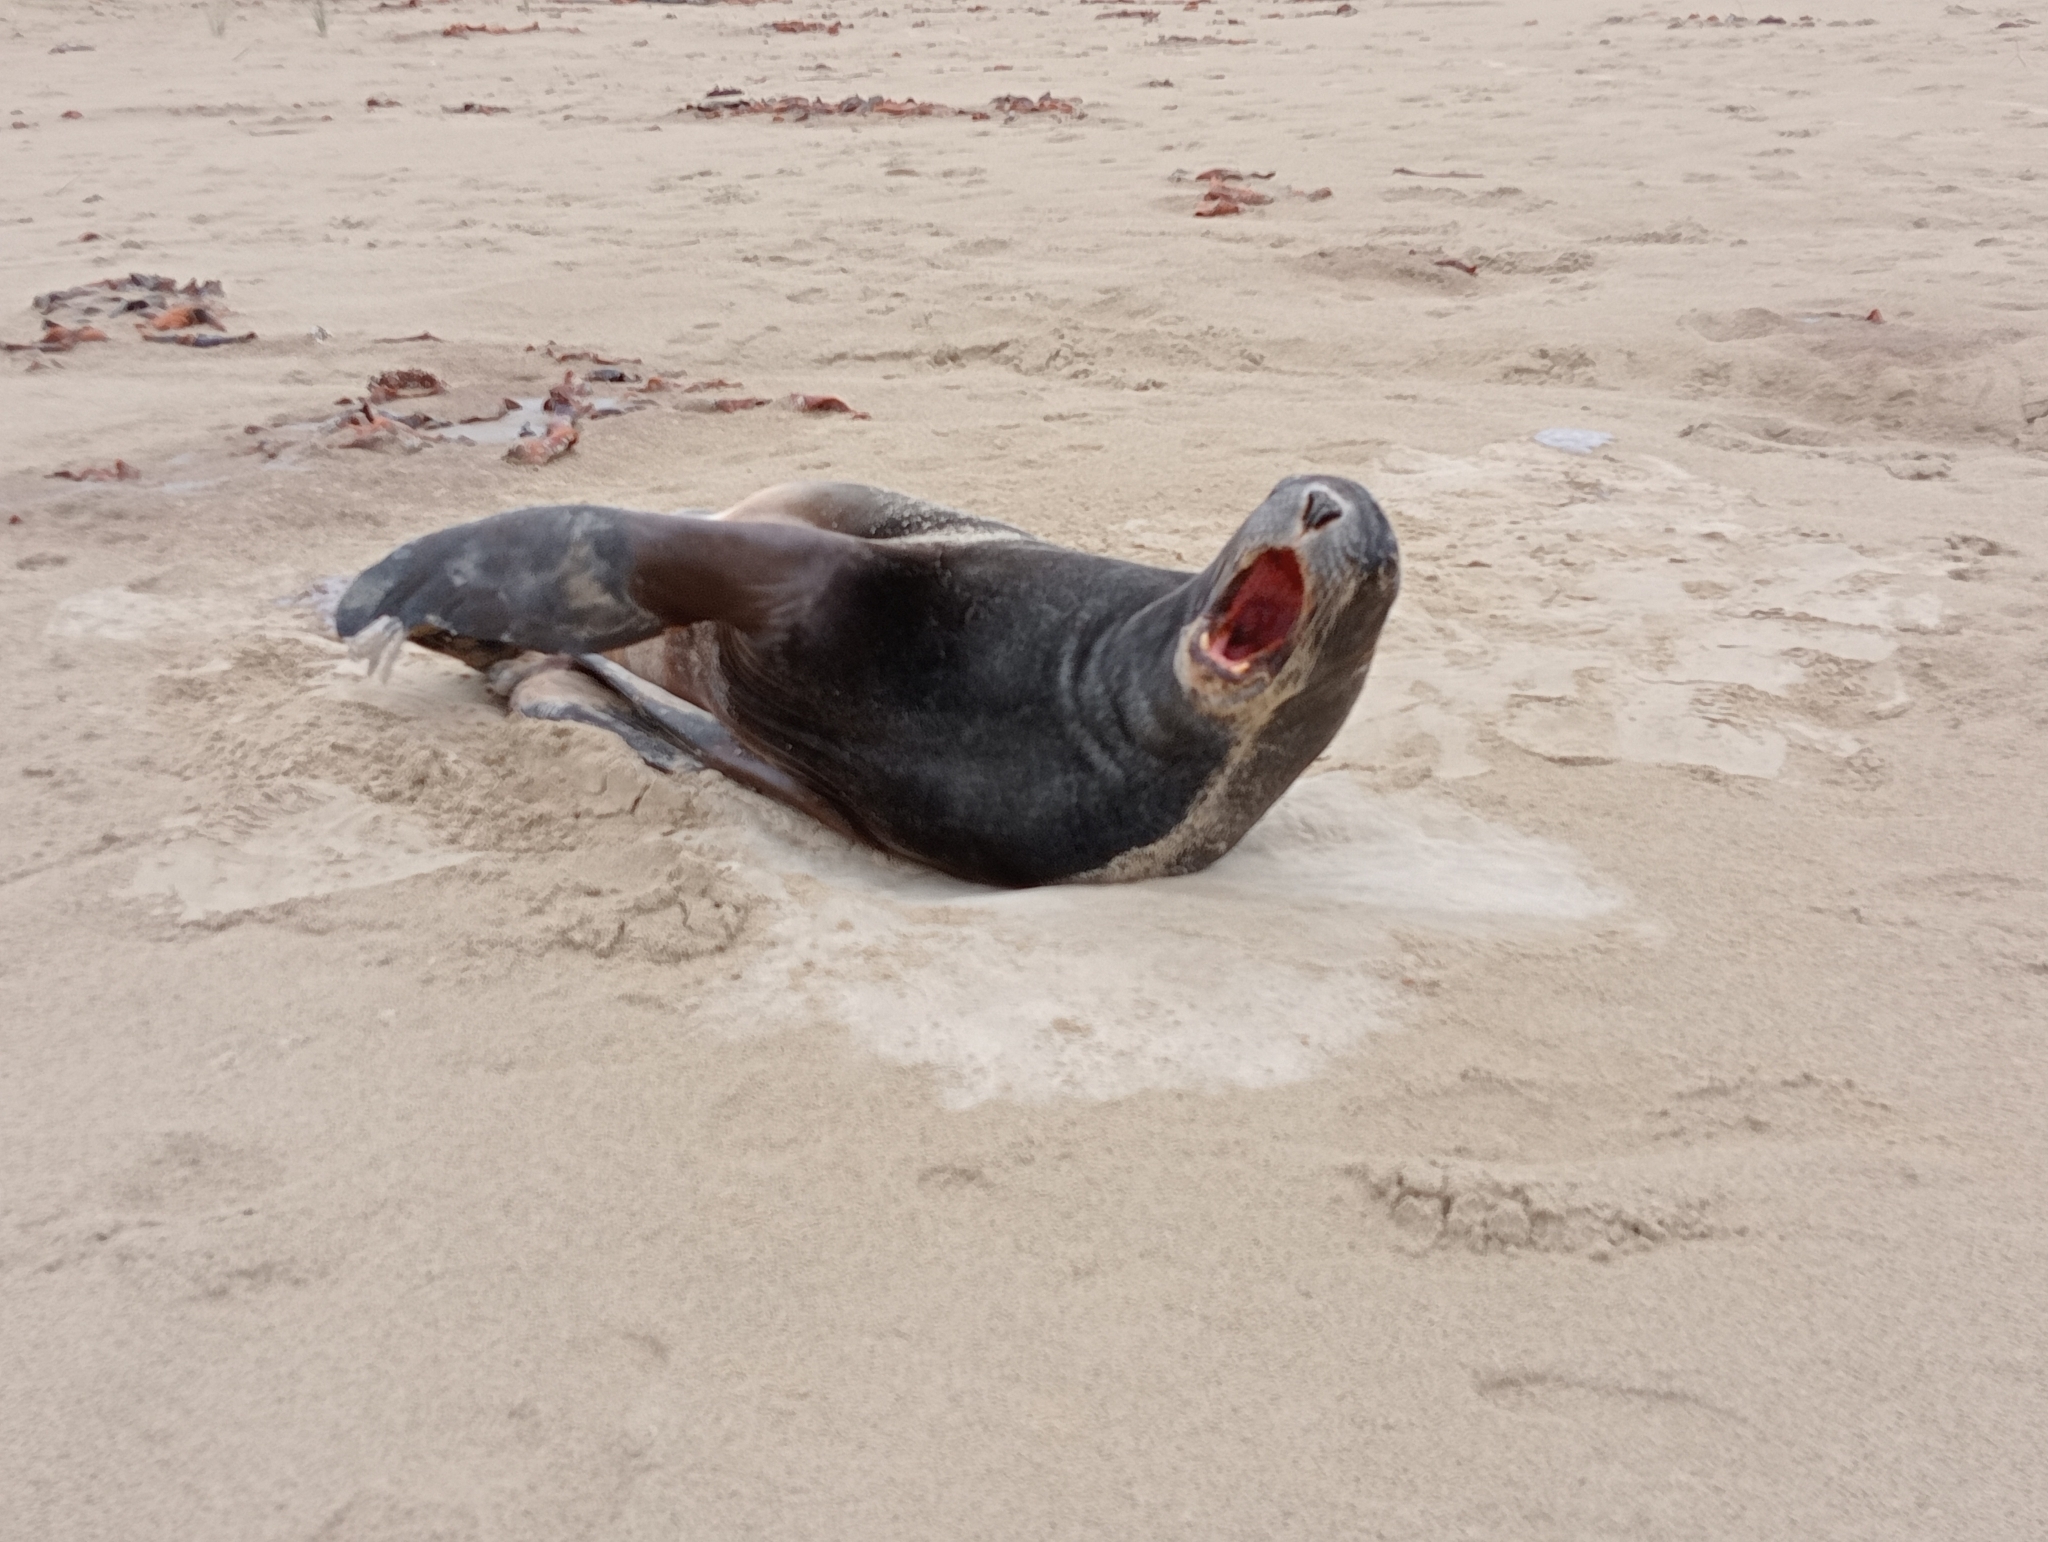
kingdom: Animalia
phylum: Chordata
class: Mammalia
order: Carnivora
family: Otariidae
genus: Phocarctos
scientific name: Phocarctos hookeri
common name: New zealand sea lion
